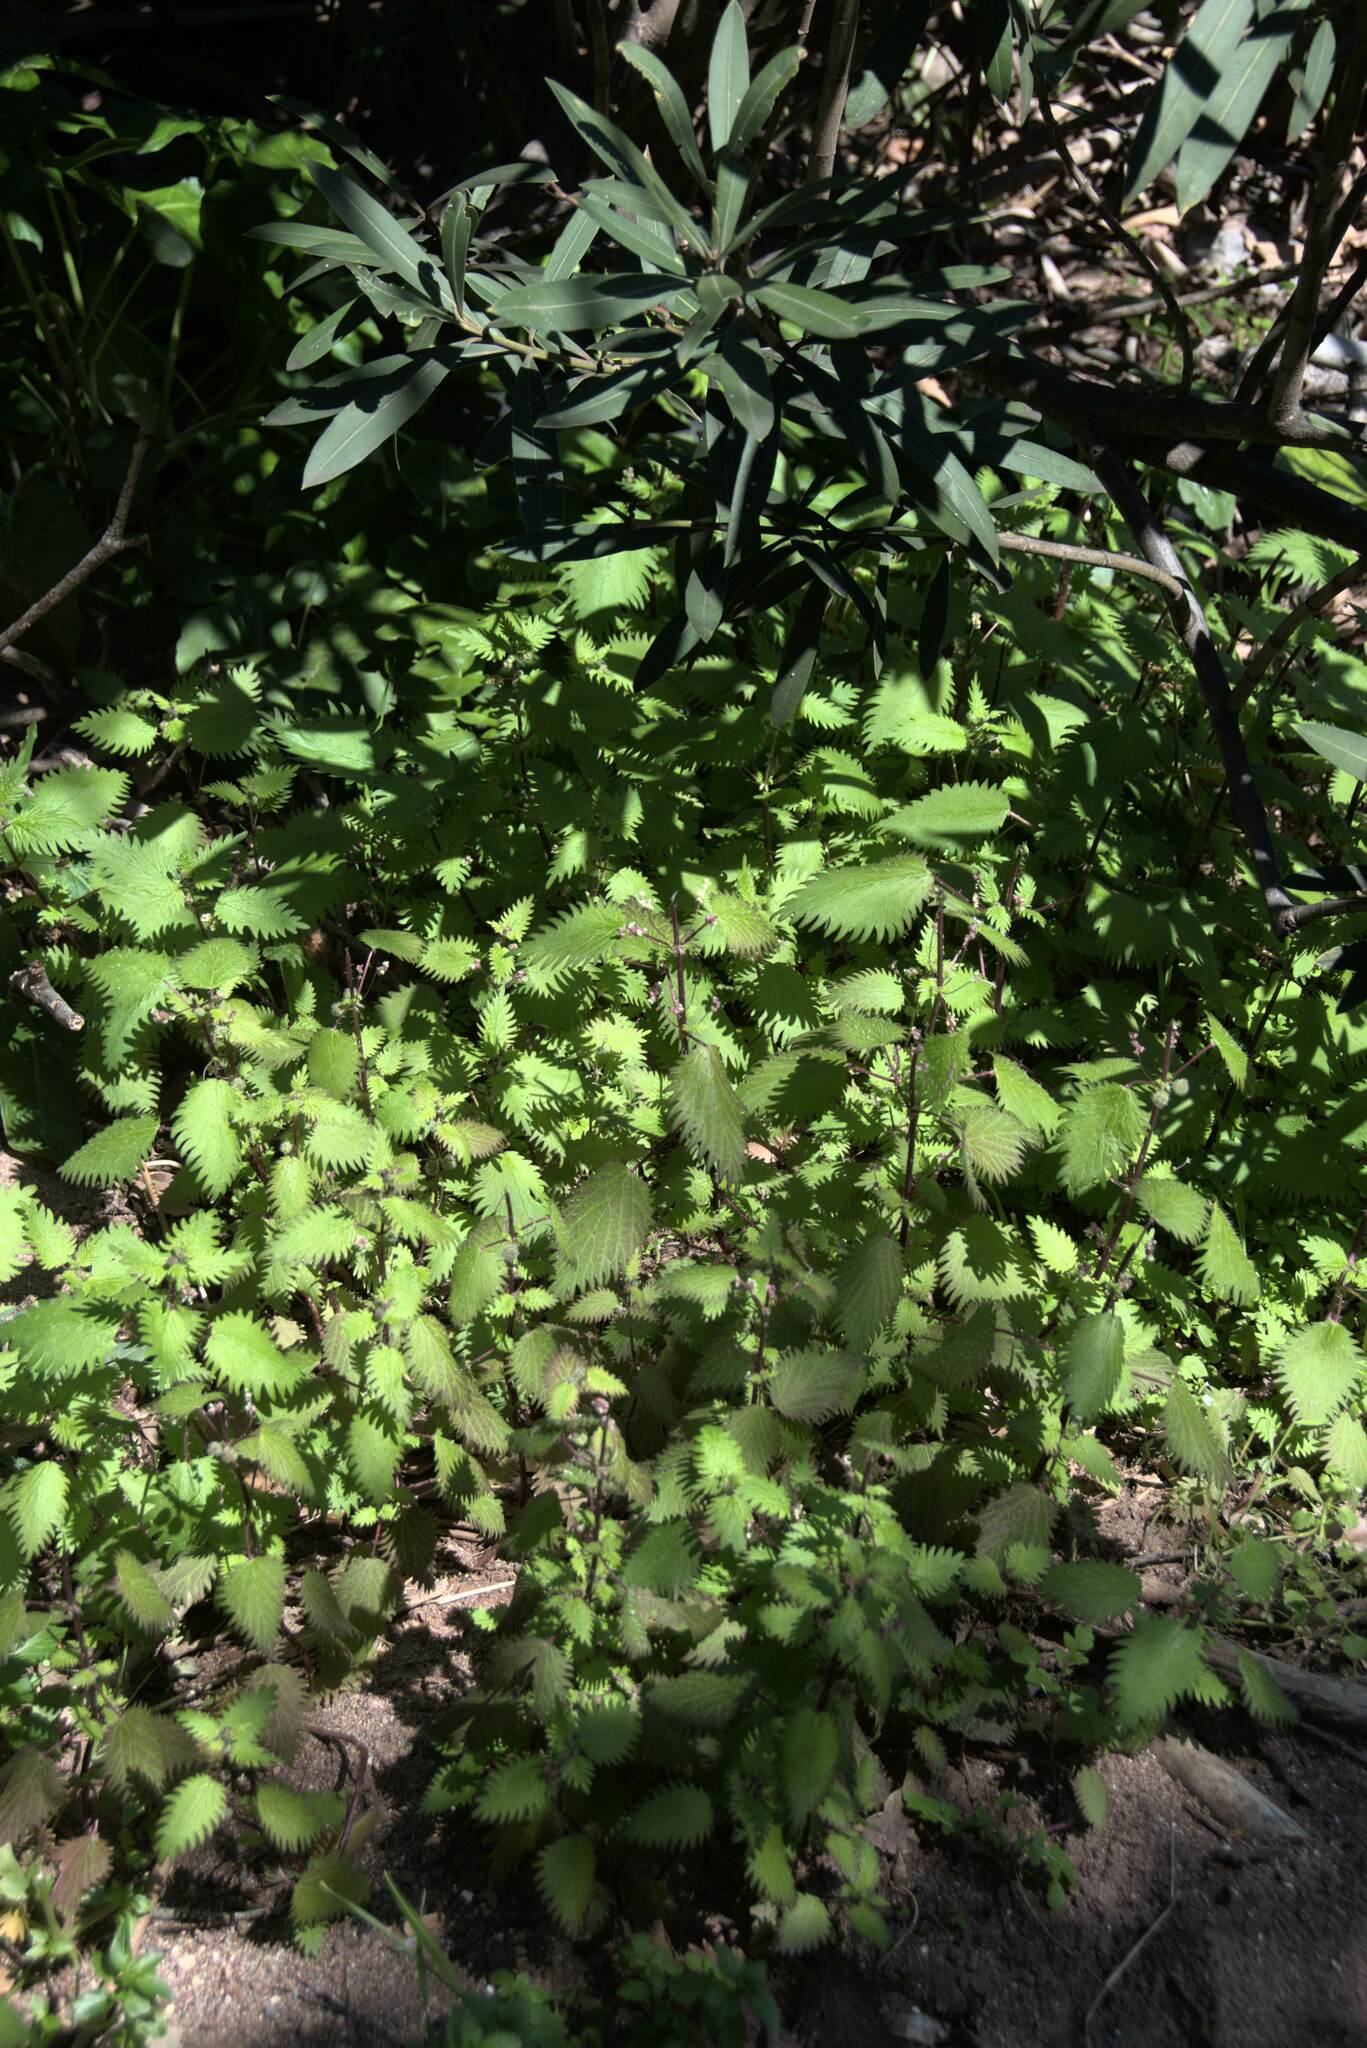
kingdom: Plantae
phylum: Tracheophyta
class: Magnoliopsida
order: Rosales
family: Urticaceae
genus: Urtica
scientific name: Urtica pilulifera
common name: Roman nettle
